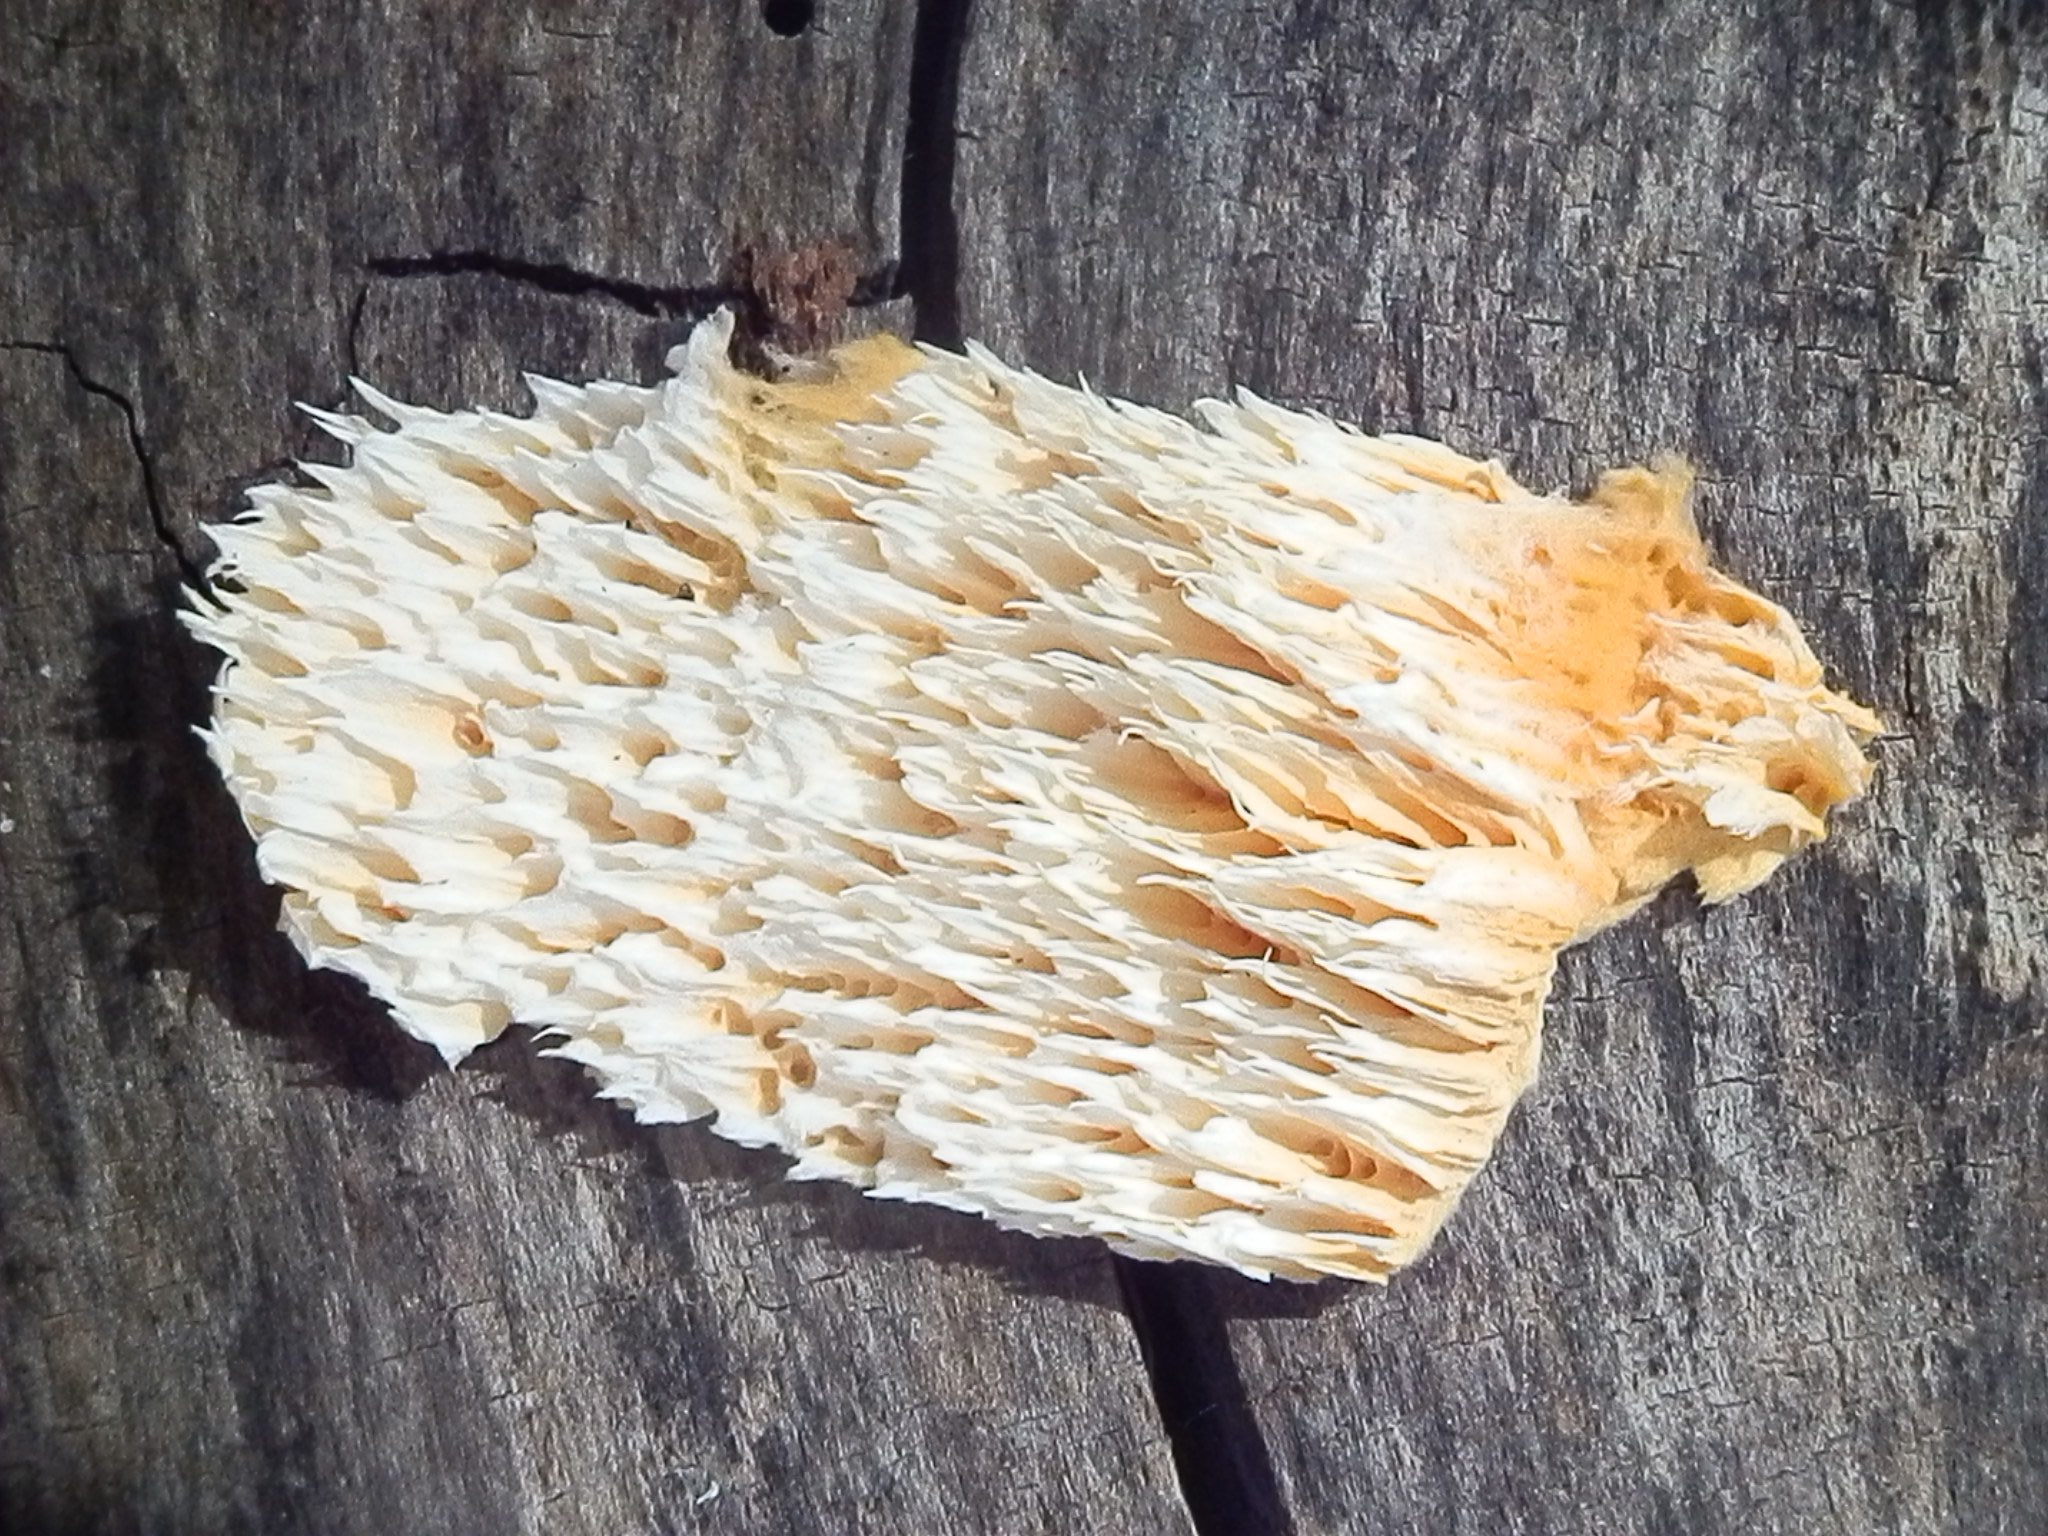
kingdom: Fungi
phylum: Basidiomycota
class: Agaricomycetes
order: Polyporales
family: Pycnoporellaceae
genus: Pycnoporellus
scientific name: Pycnoporellus alboluteus
